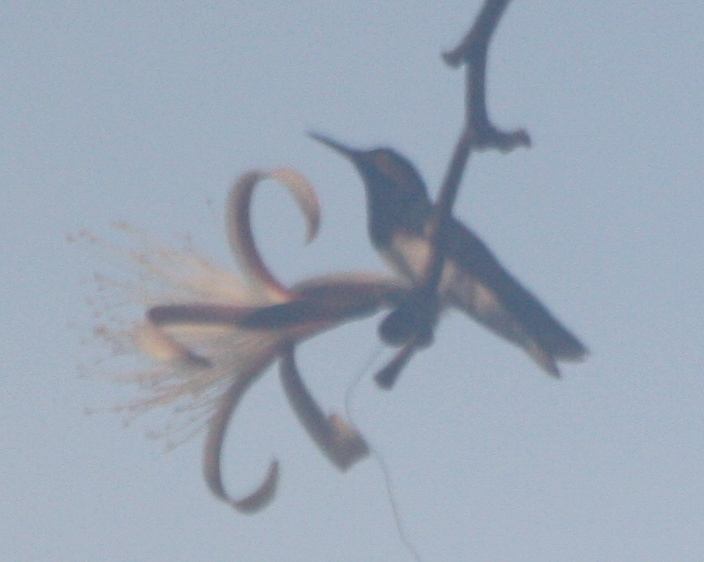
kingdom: Animalia
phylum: Chordata
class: Aves
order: Apodiformes
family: Trochilidae
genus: Florisuga
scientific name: Florisuga mellivora
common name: White-necked jacobin
